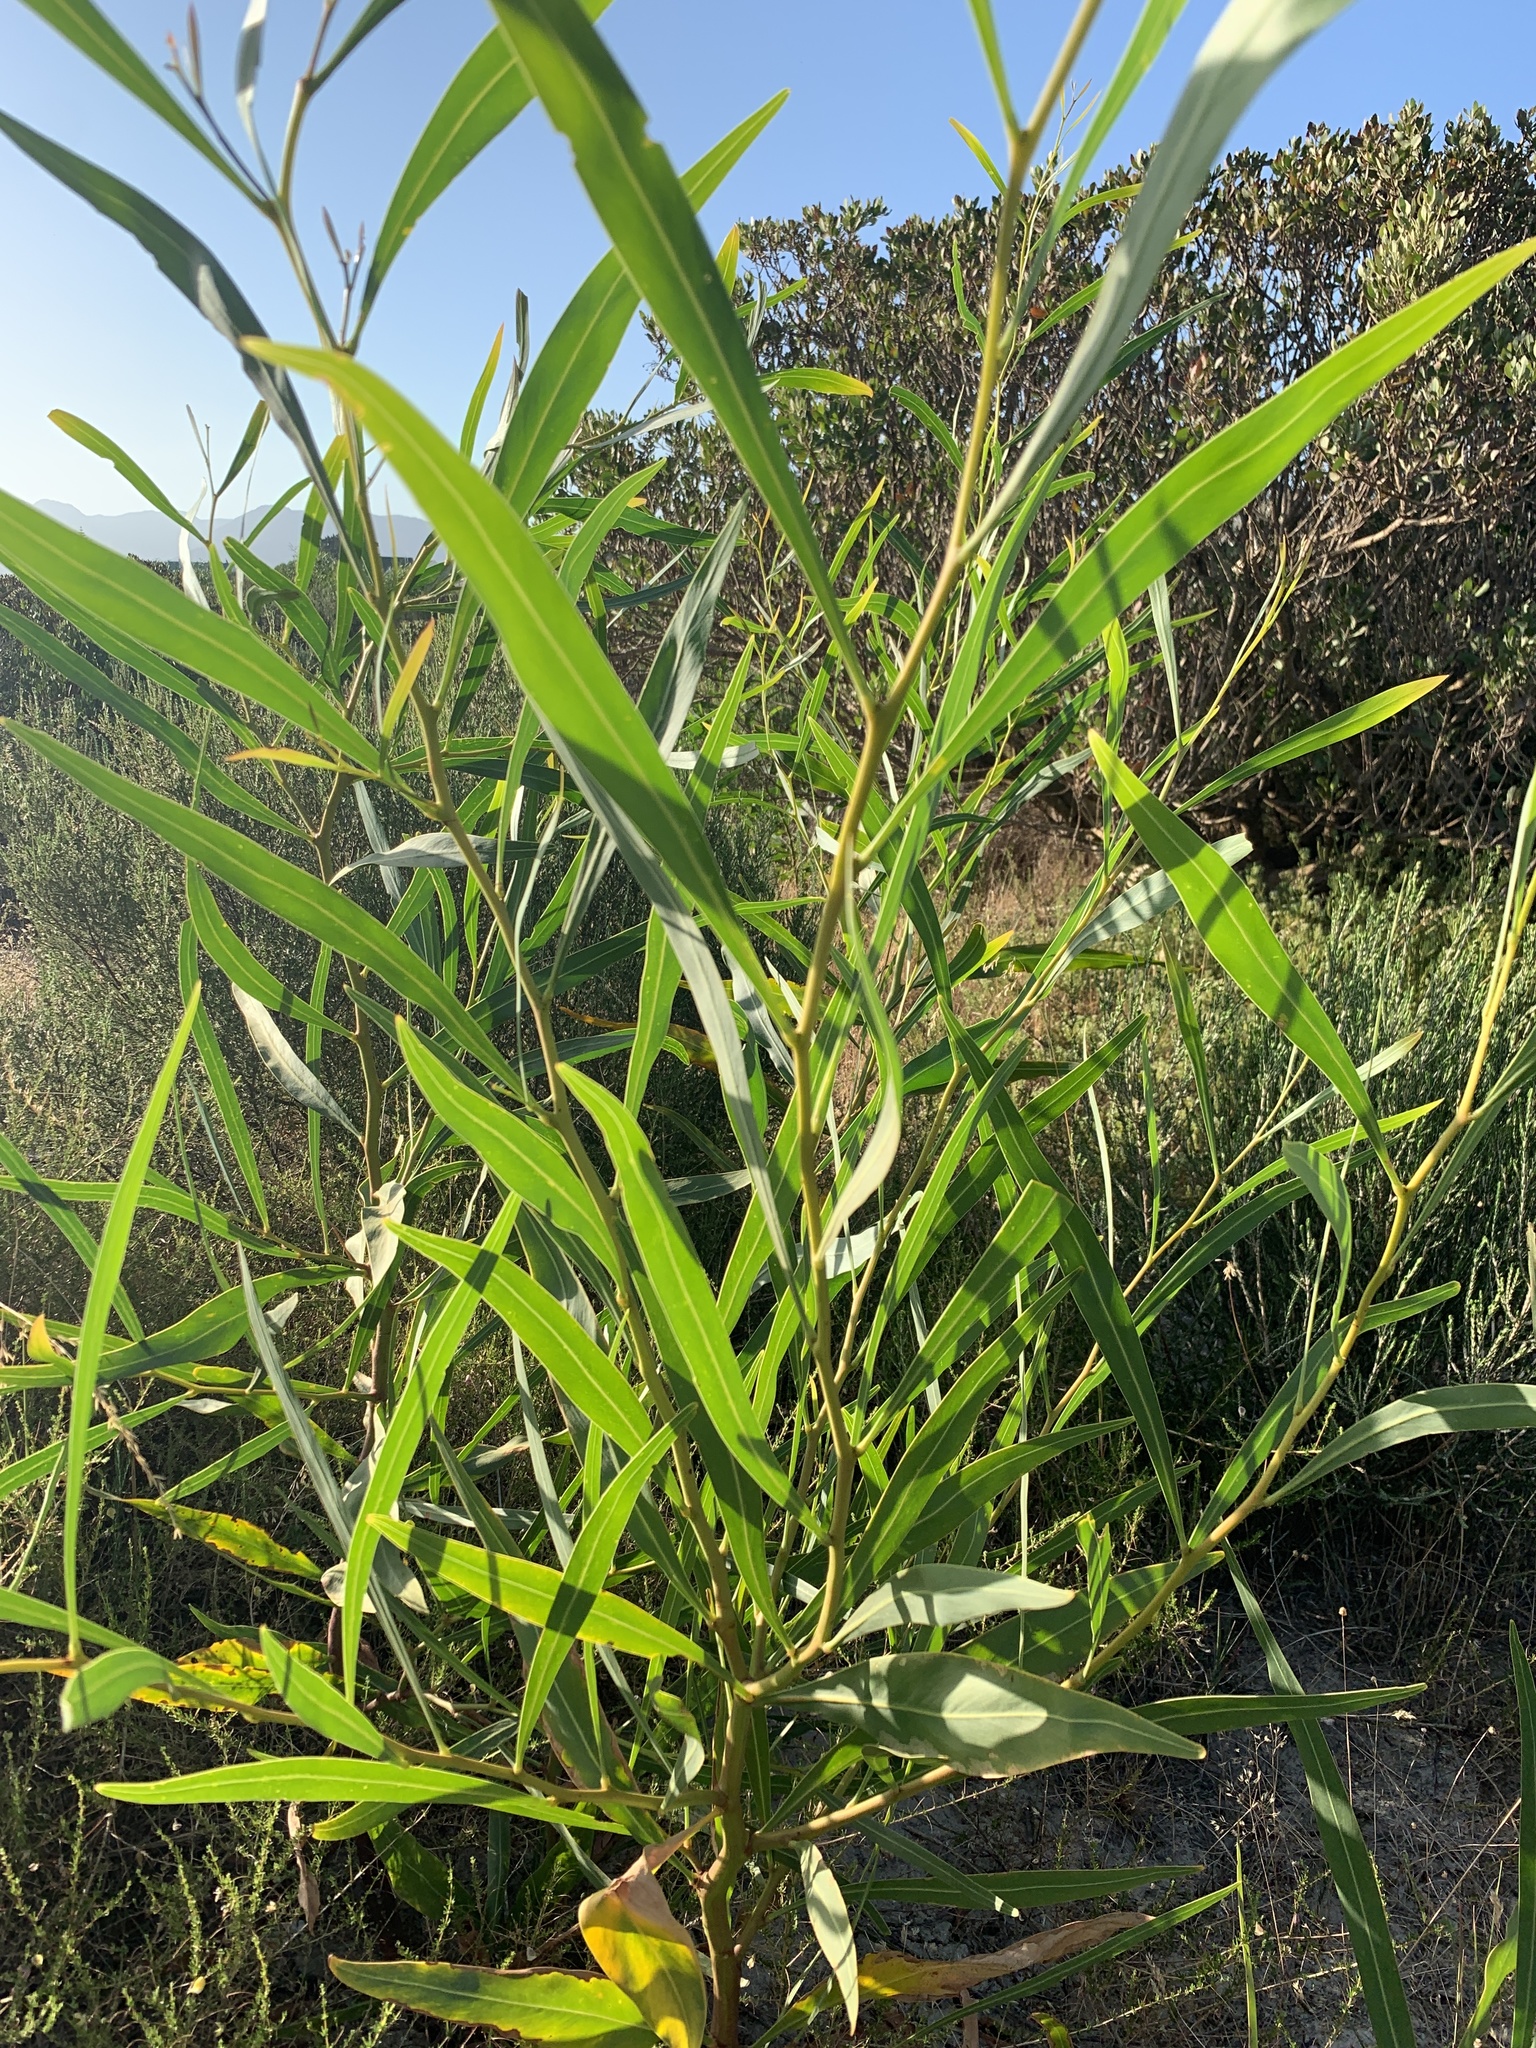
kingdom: Plantae
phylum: Tracheophyta
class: Magnoliopsida
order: Fabales
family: Fabaceae
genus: Acacia
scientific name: Acacia saligna
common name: Orange wattle
